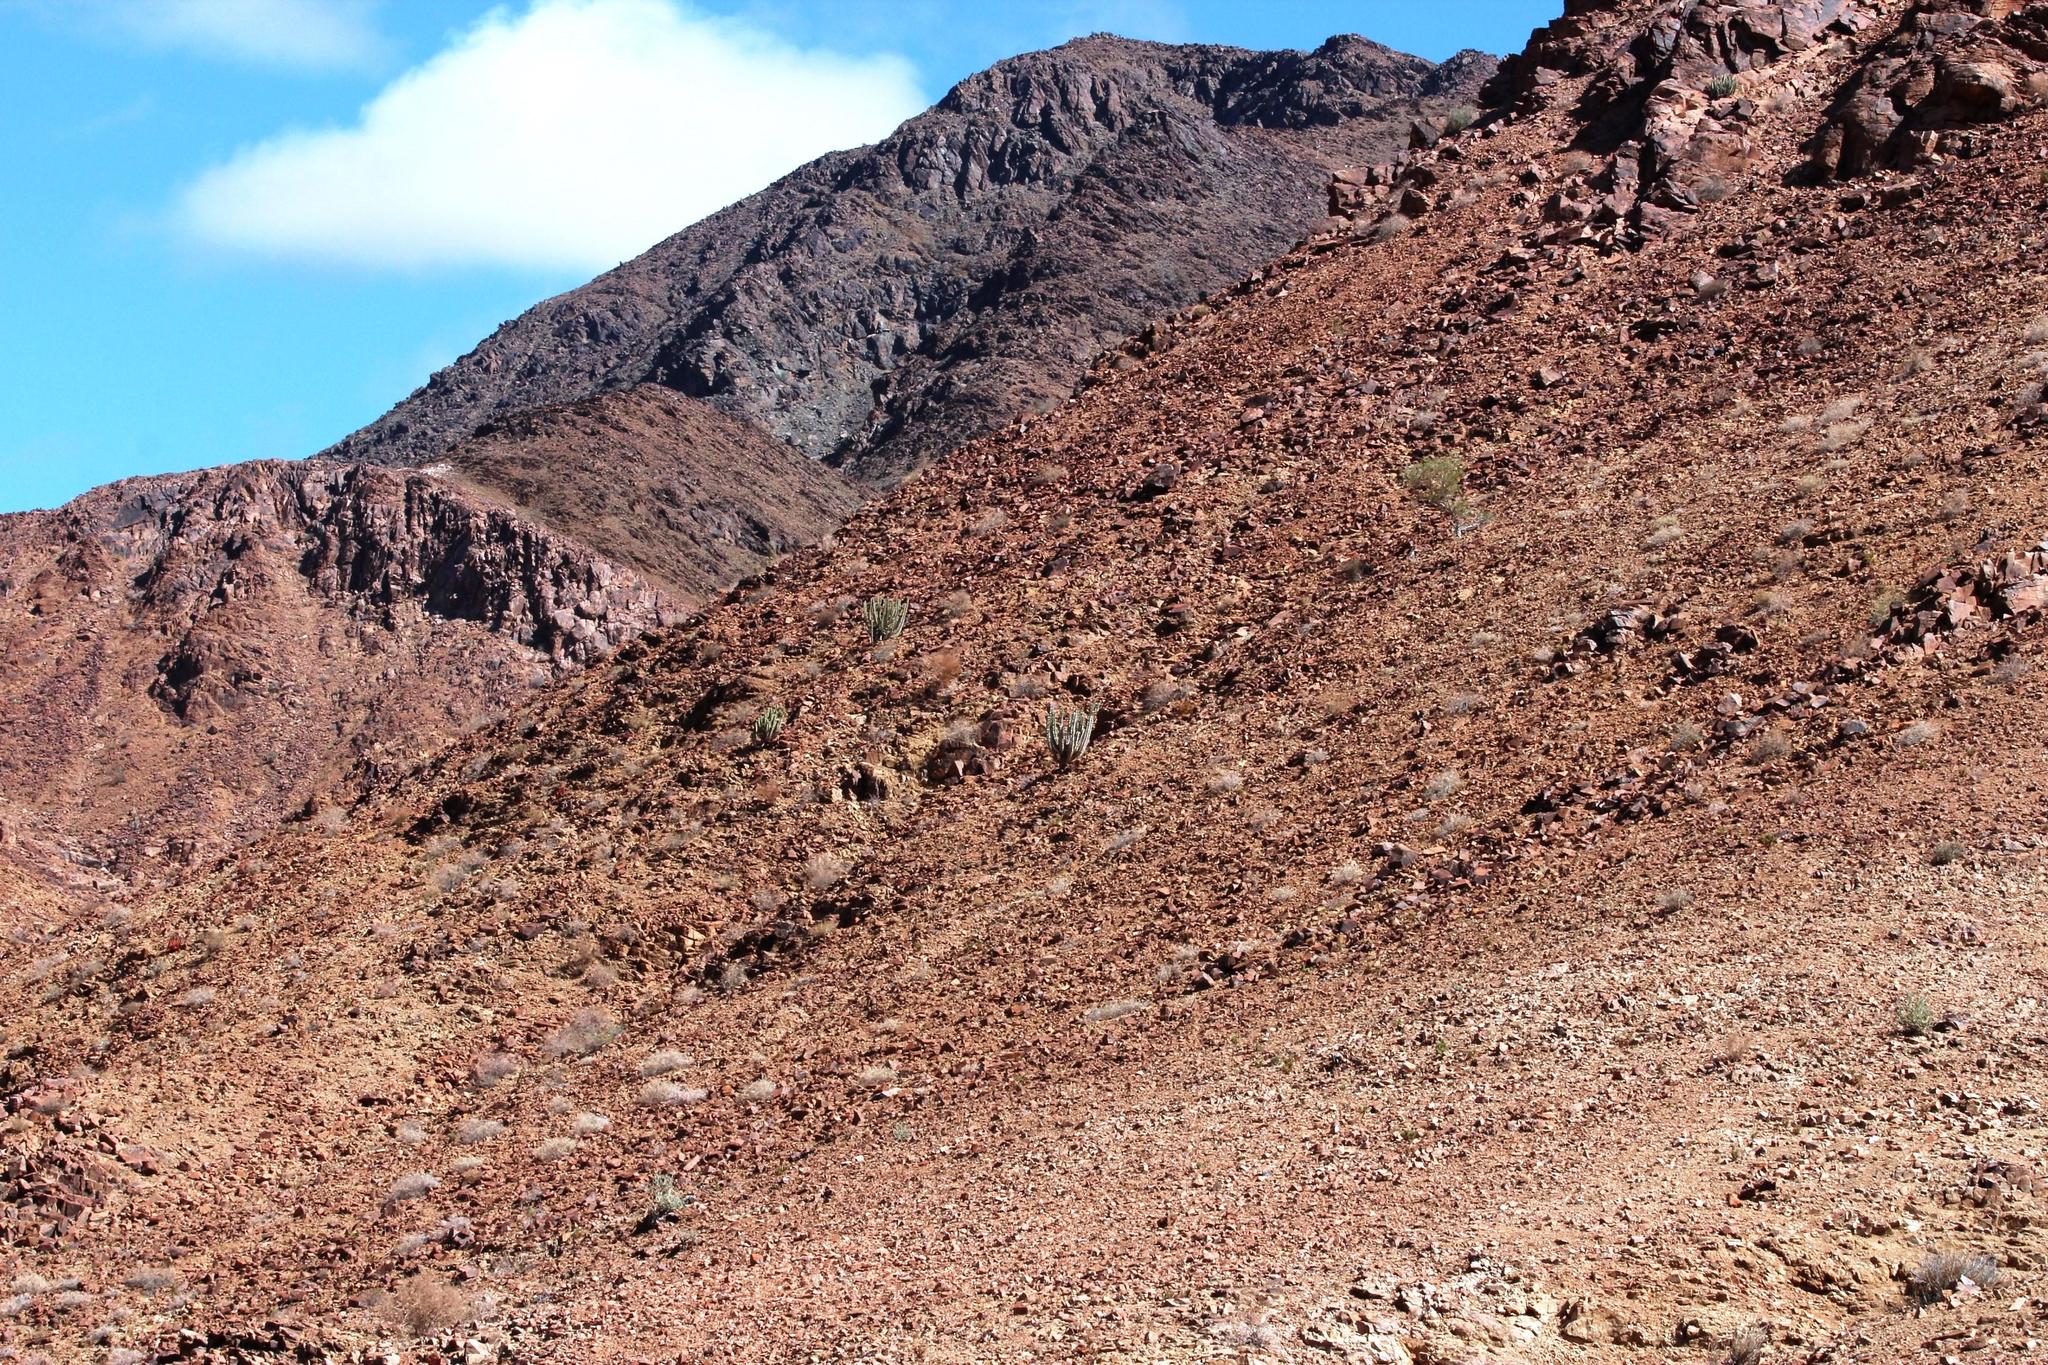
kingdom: Plantae
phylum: Tracheophyta
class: Magnoliopsida
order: Malpighiales
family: Euphorbiaceae
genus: Euphorbia
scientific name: Euphorbia virosa
